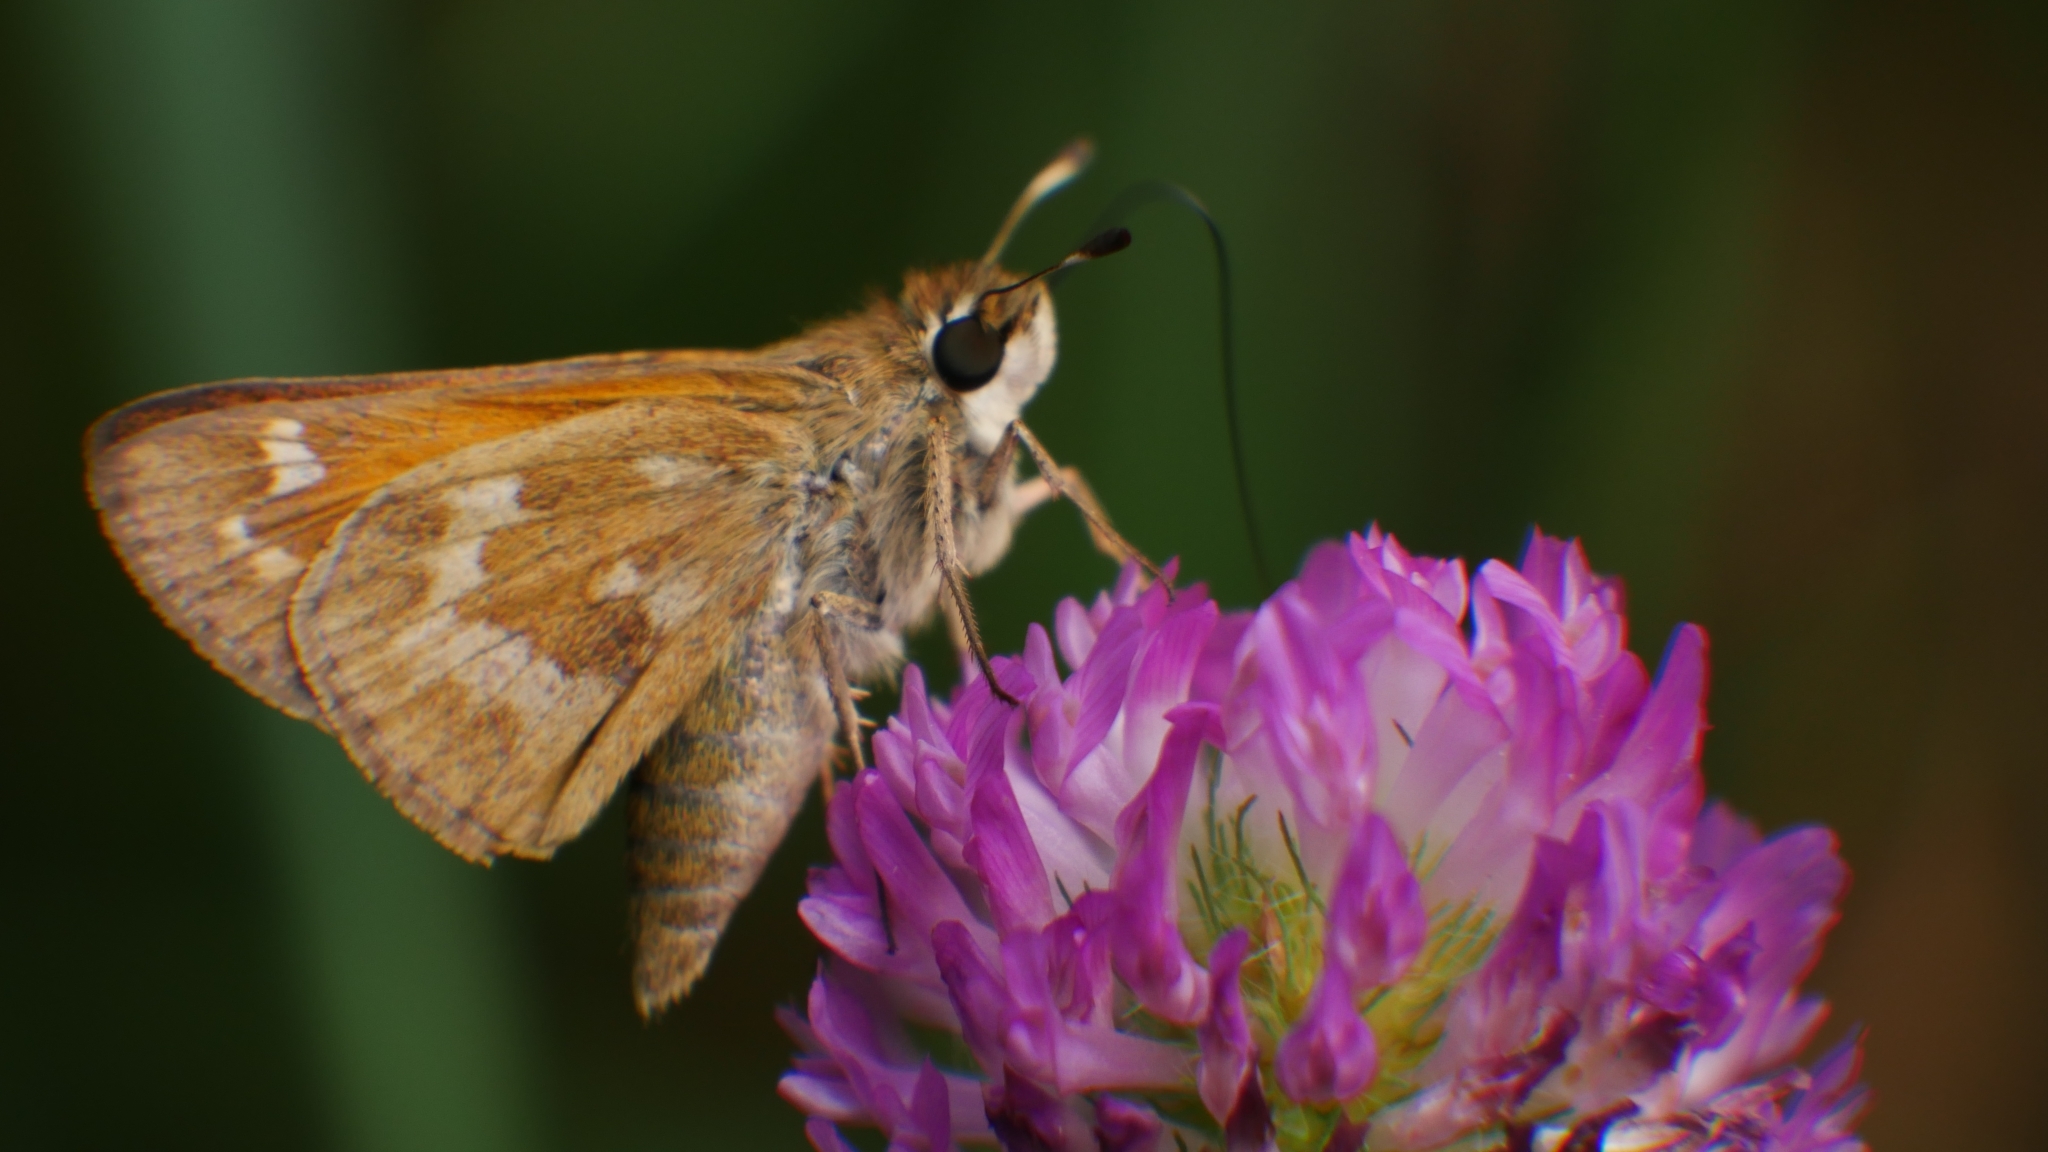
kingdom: Animalia
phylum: Arthropoda
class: Insecta
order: Lepidoptera
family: Hesperiidae
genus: Atalopedes
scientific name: Atalopedes
